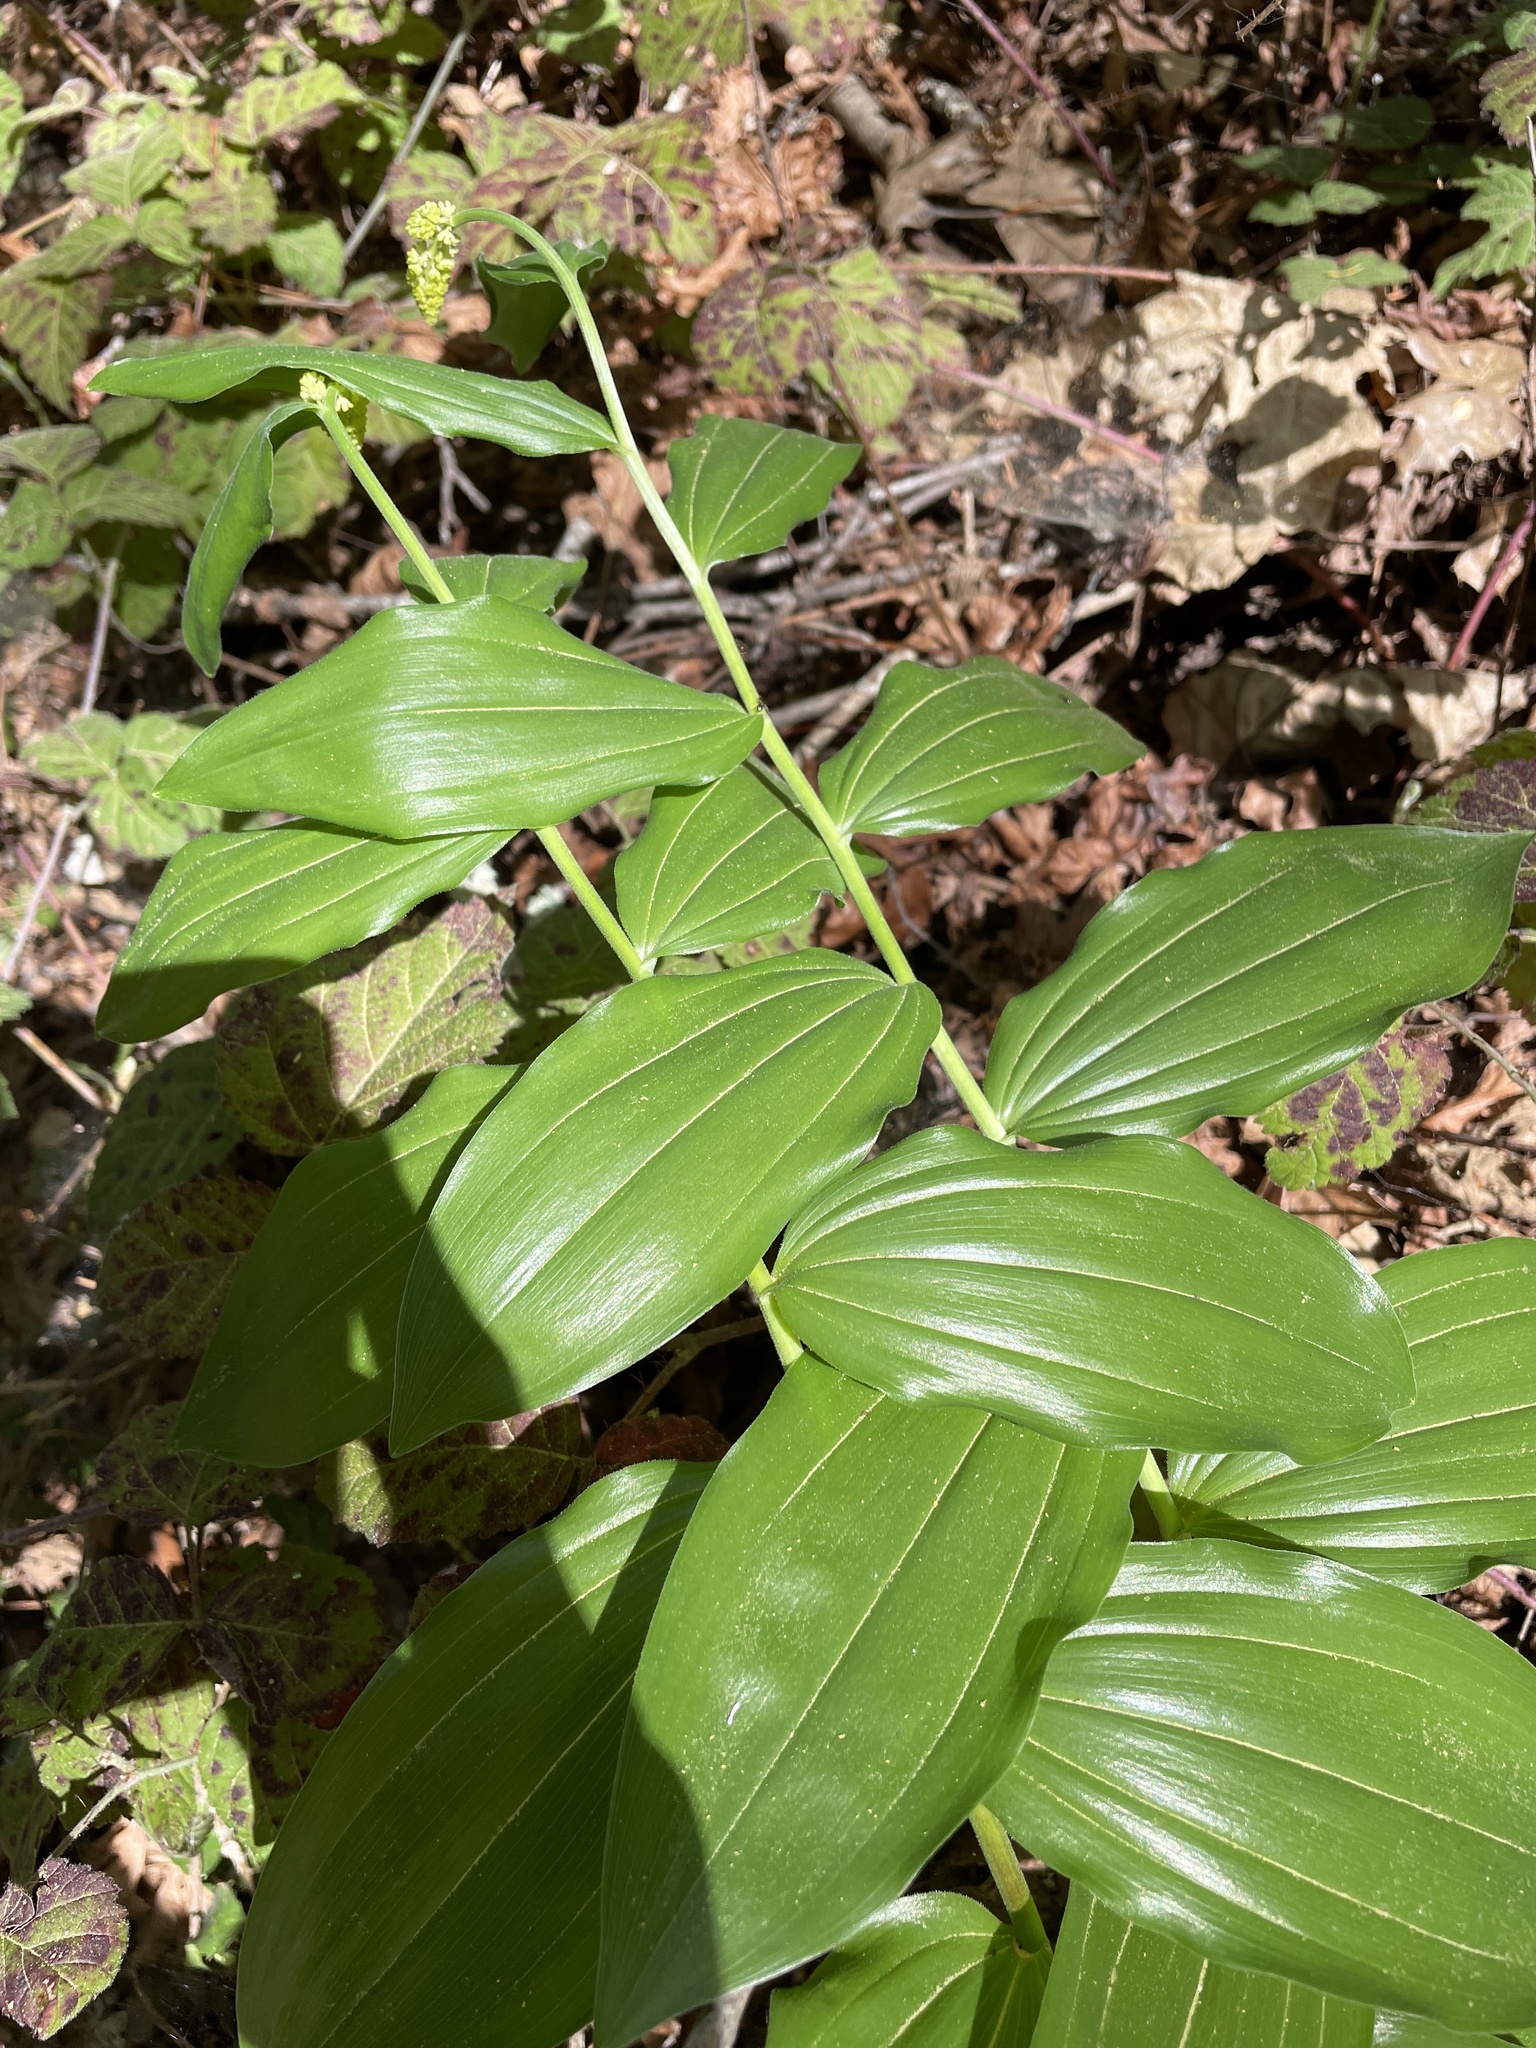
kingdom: Plantae
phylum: Tracheophyta
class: Liliopsida
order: Asparagales
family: Asparagaceae
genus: Maianthemum
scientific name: Maianthemum racemosum
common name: False spikenard
